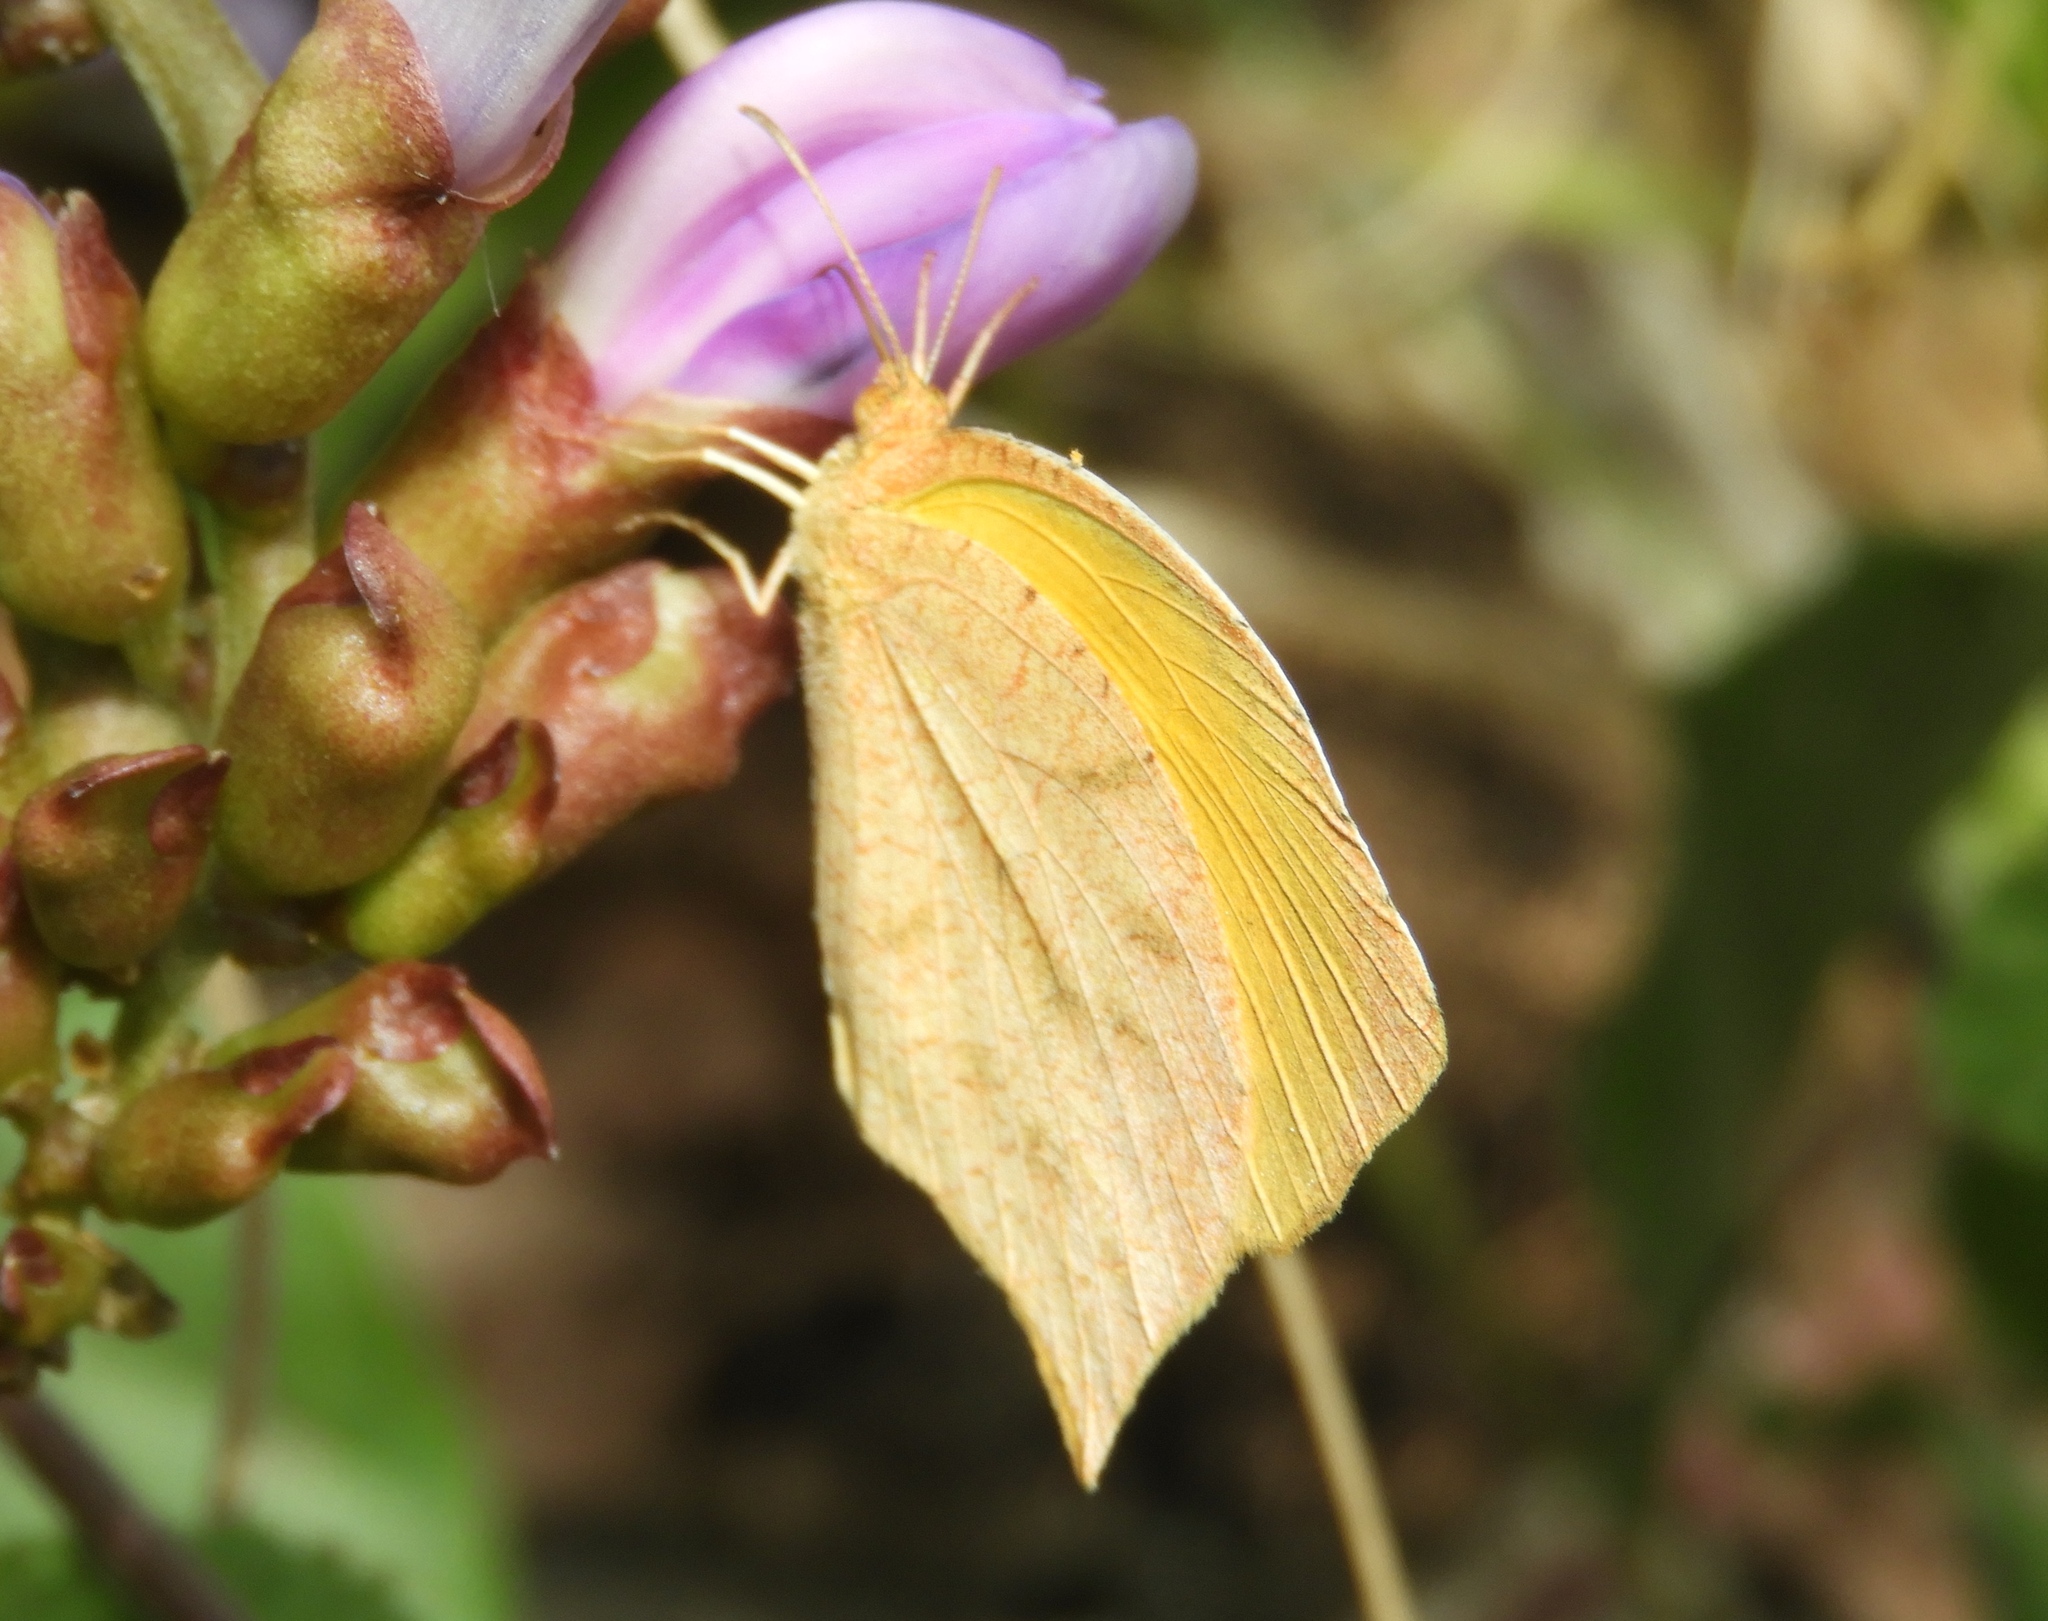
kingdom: Animalia
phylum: Arthropoda
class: Insecta
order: Lepidoptera
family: Pieridae
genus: Pyrisitia
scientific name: Pyrisitia proterpia
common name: Tailed orange
